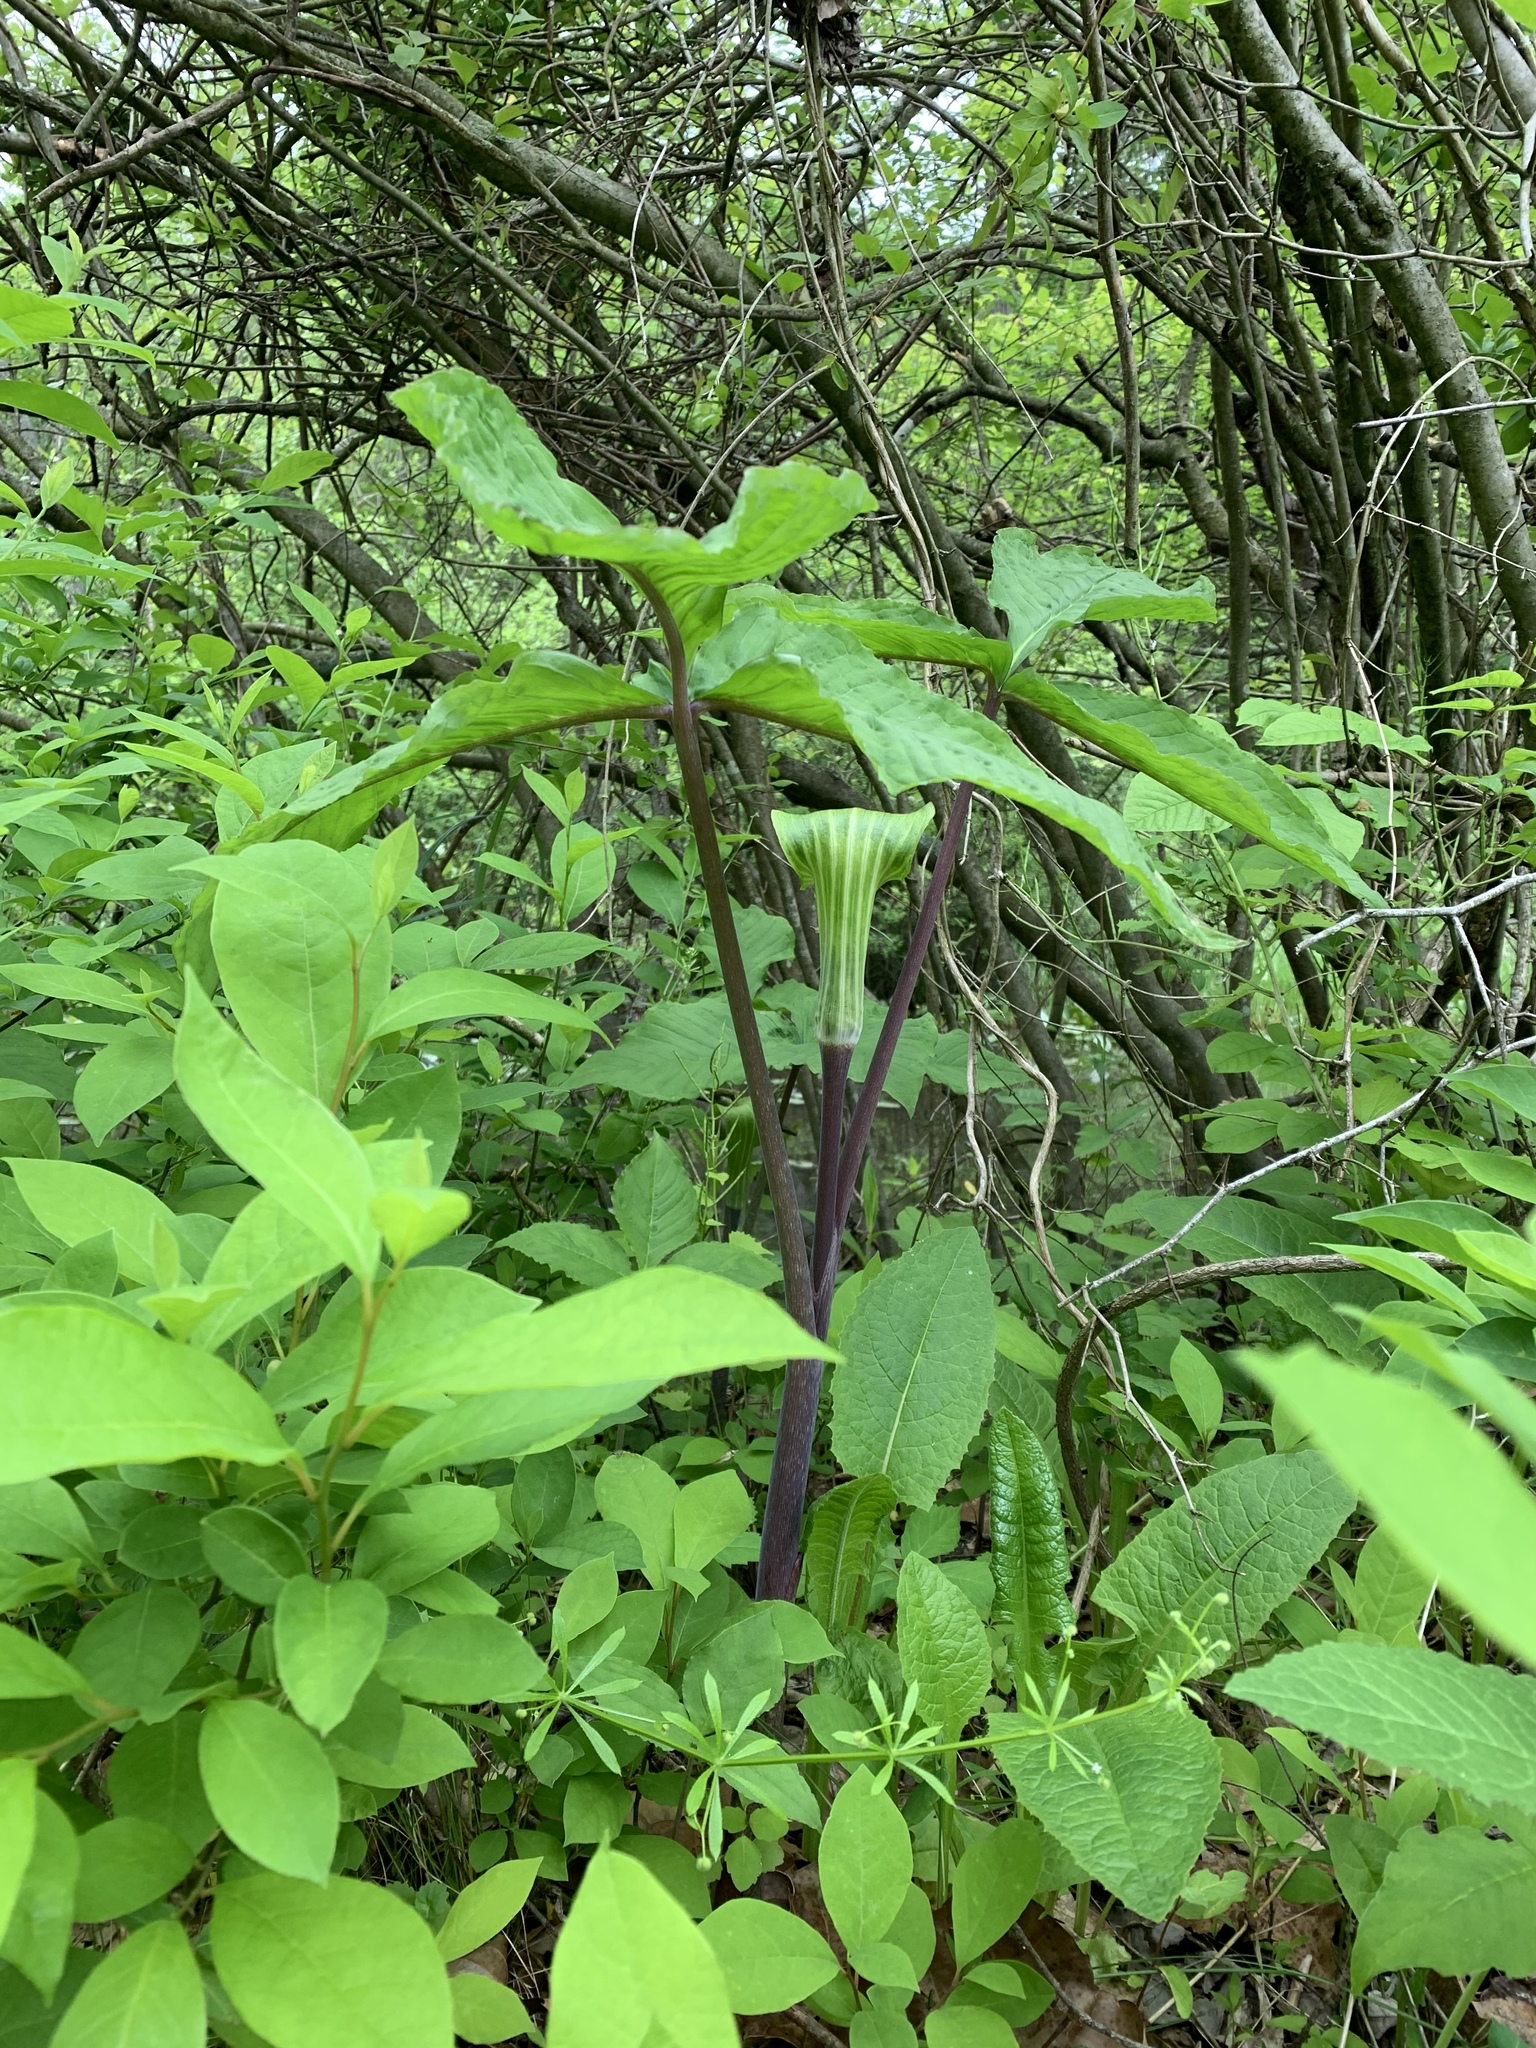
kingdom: Plantae
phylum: Tracheophyta
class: Liliopsida
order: Alismatales
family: Araceae
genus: Arisaema
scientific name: Arisaema triphyllum
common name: Jack-in-the-pulpit
